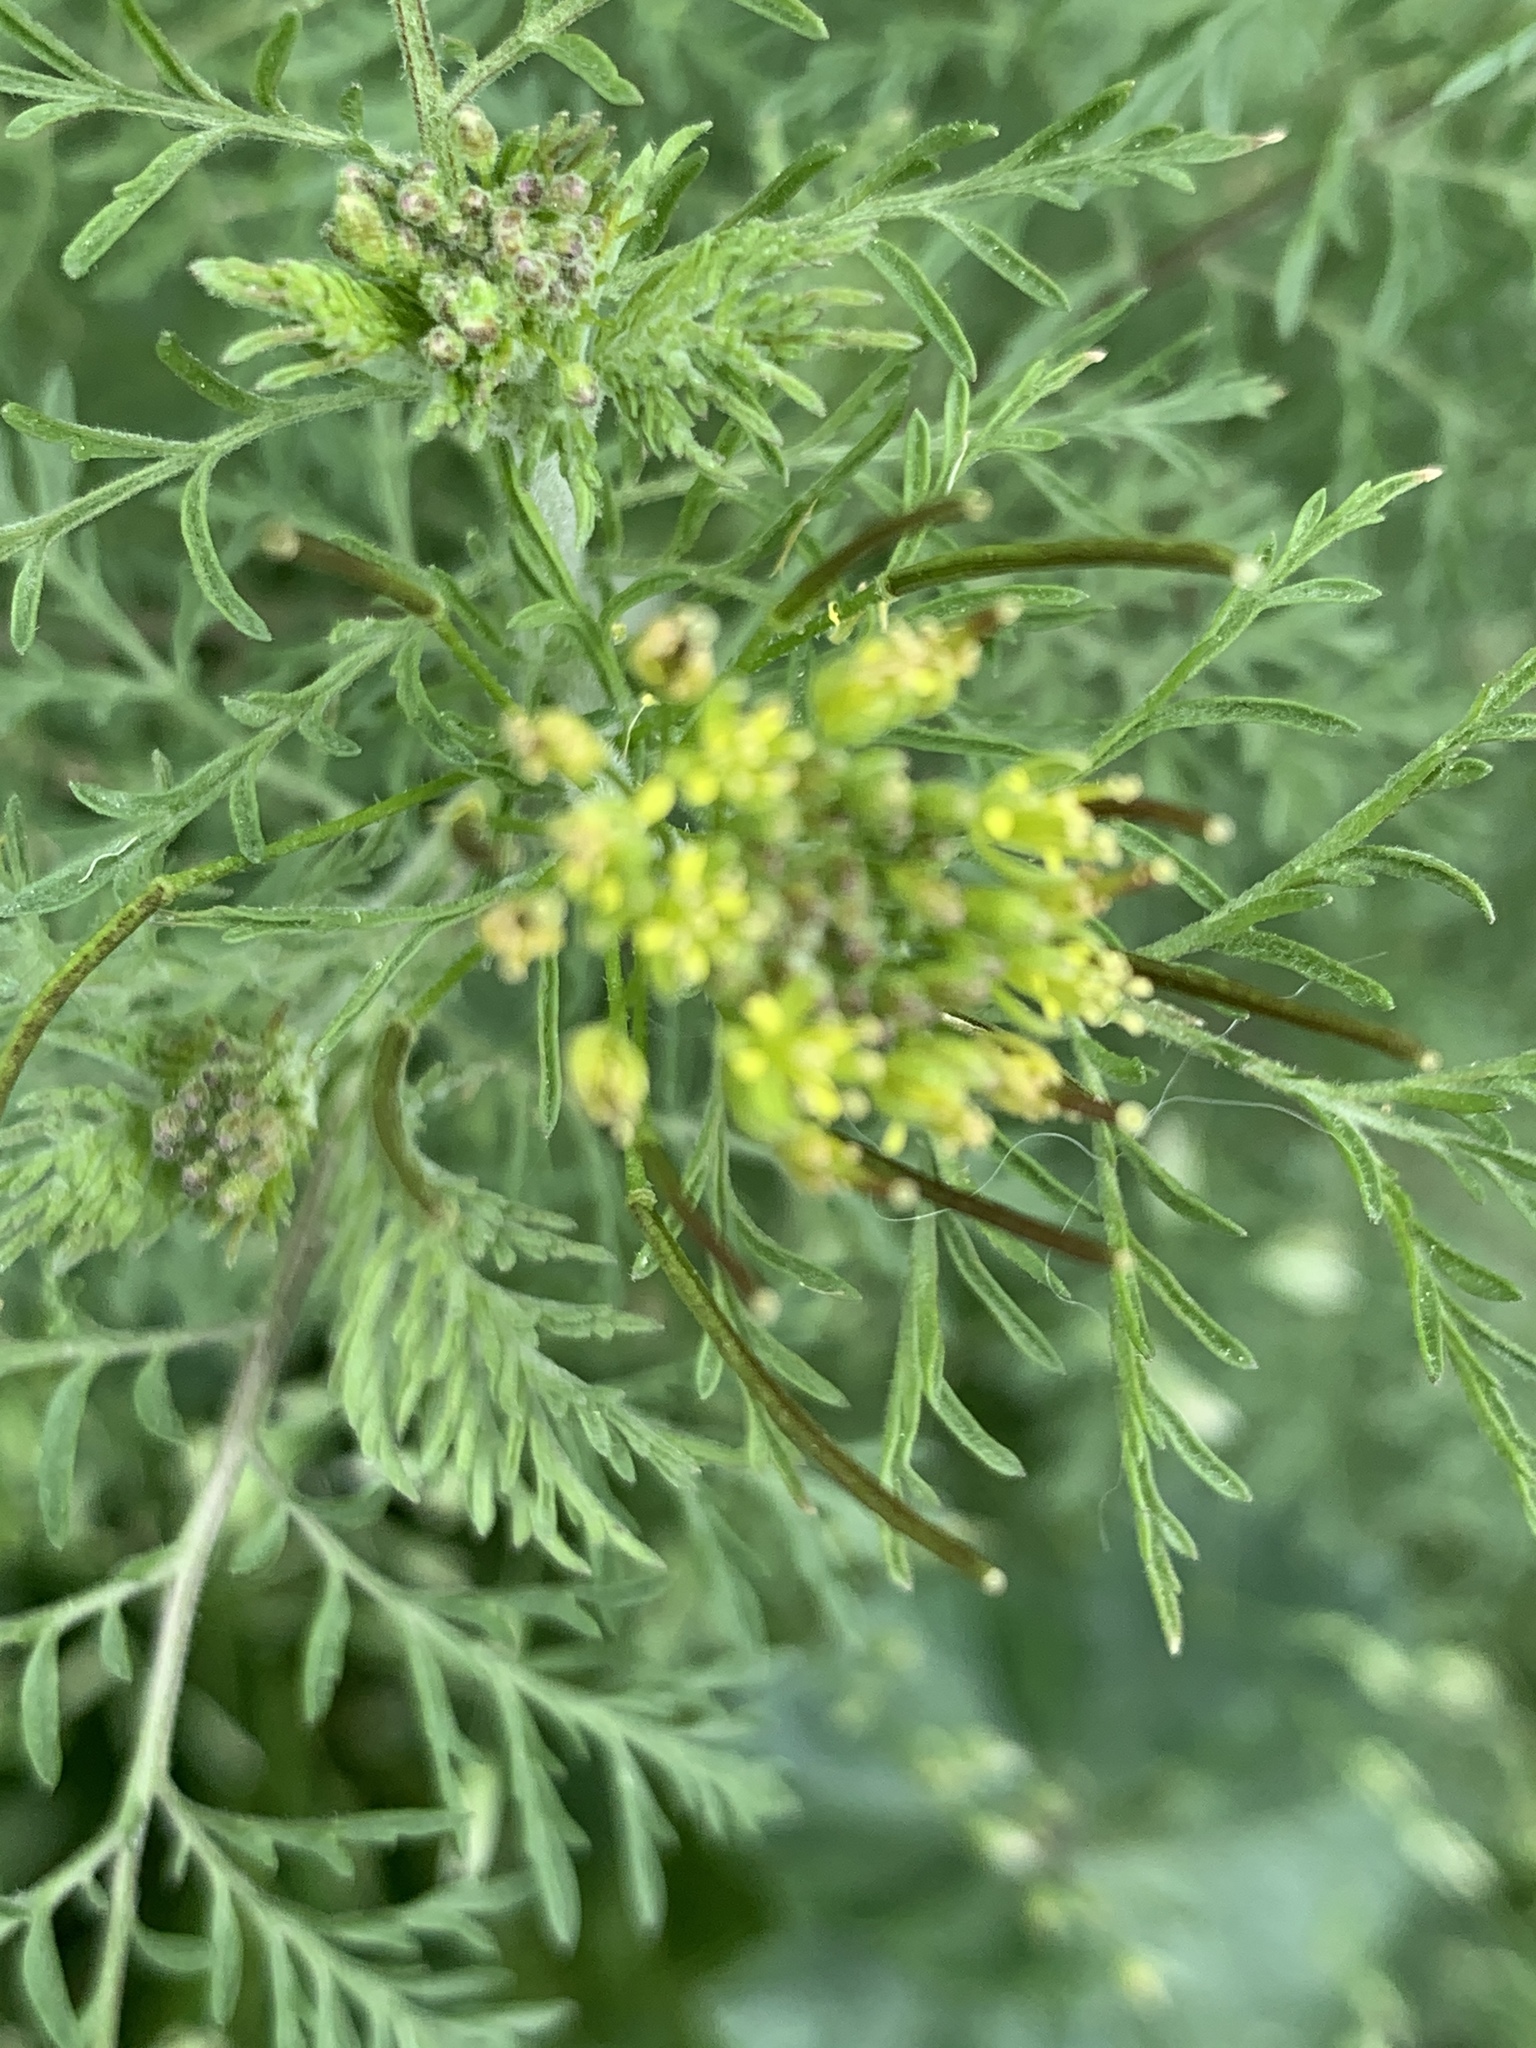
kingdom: Plantae
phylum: Tracheophyta
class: Magnoliopsida
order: Brassicales
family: Brassicaceae
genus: Descurainia
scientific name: Descurainia sophia
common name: Flixweed
